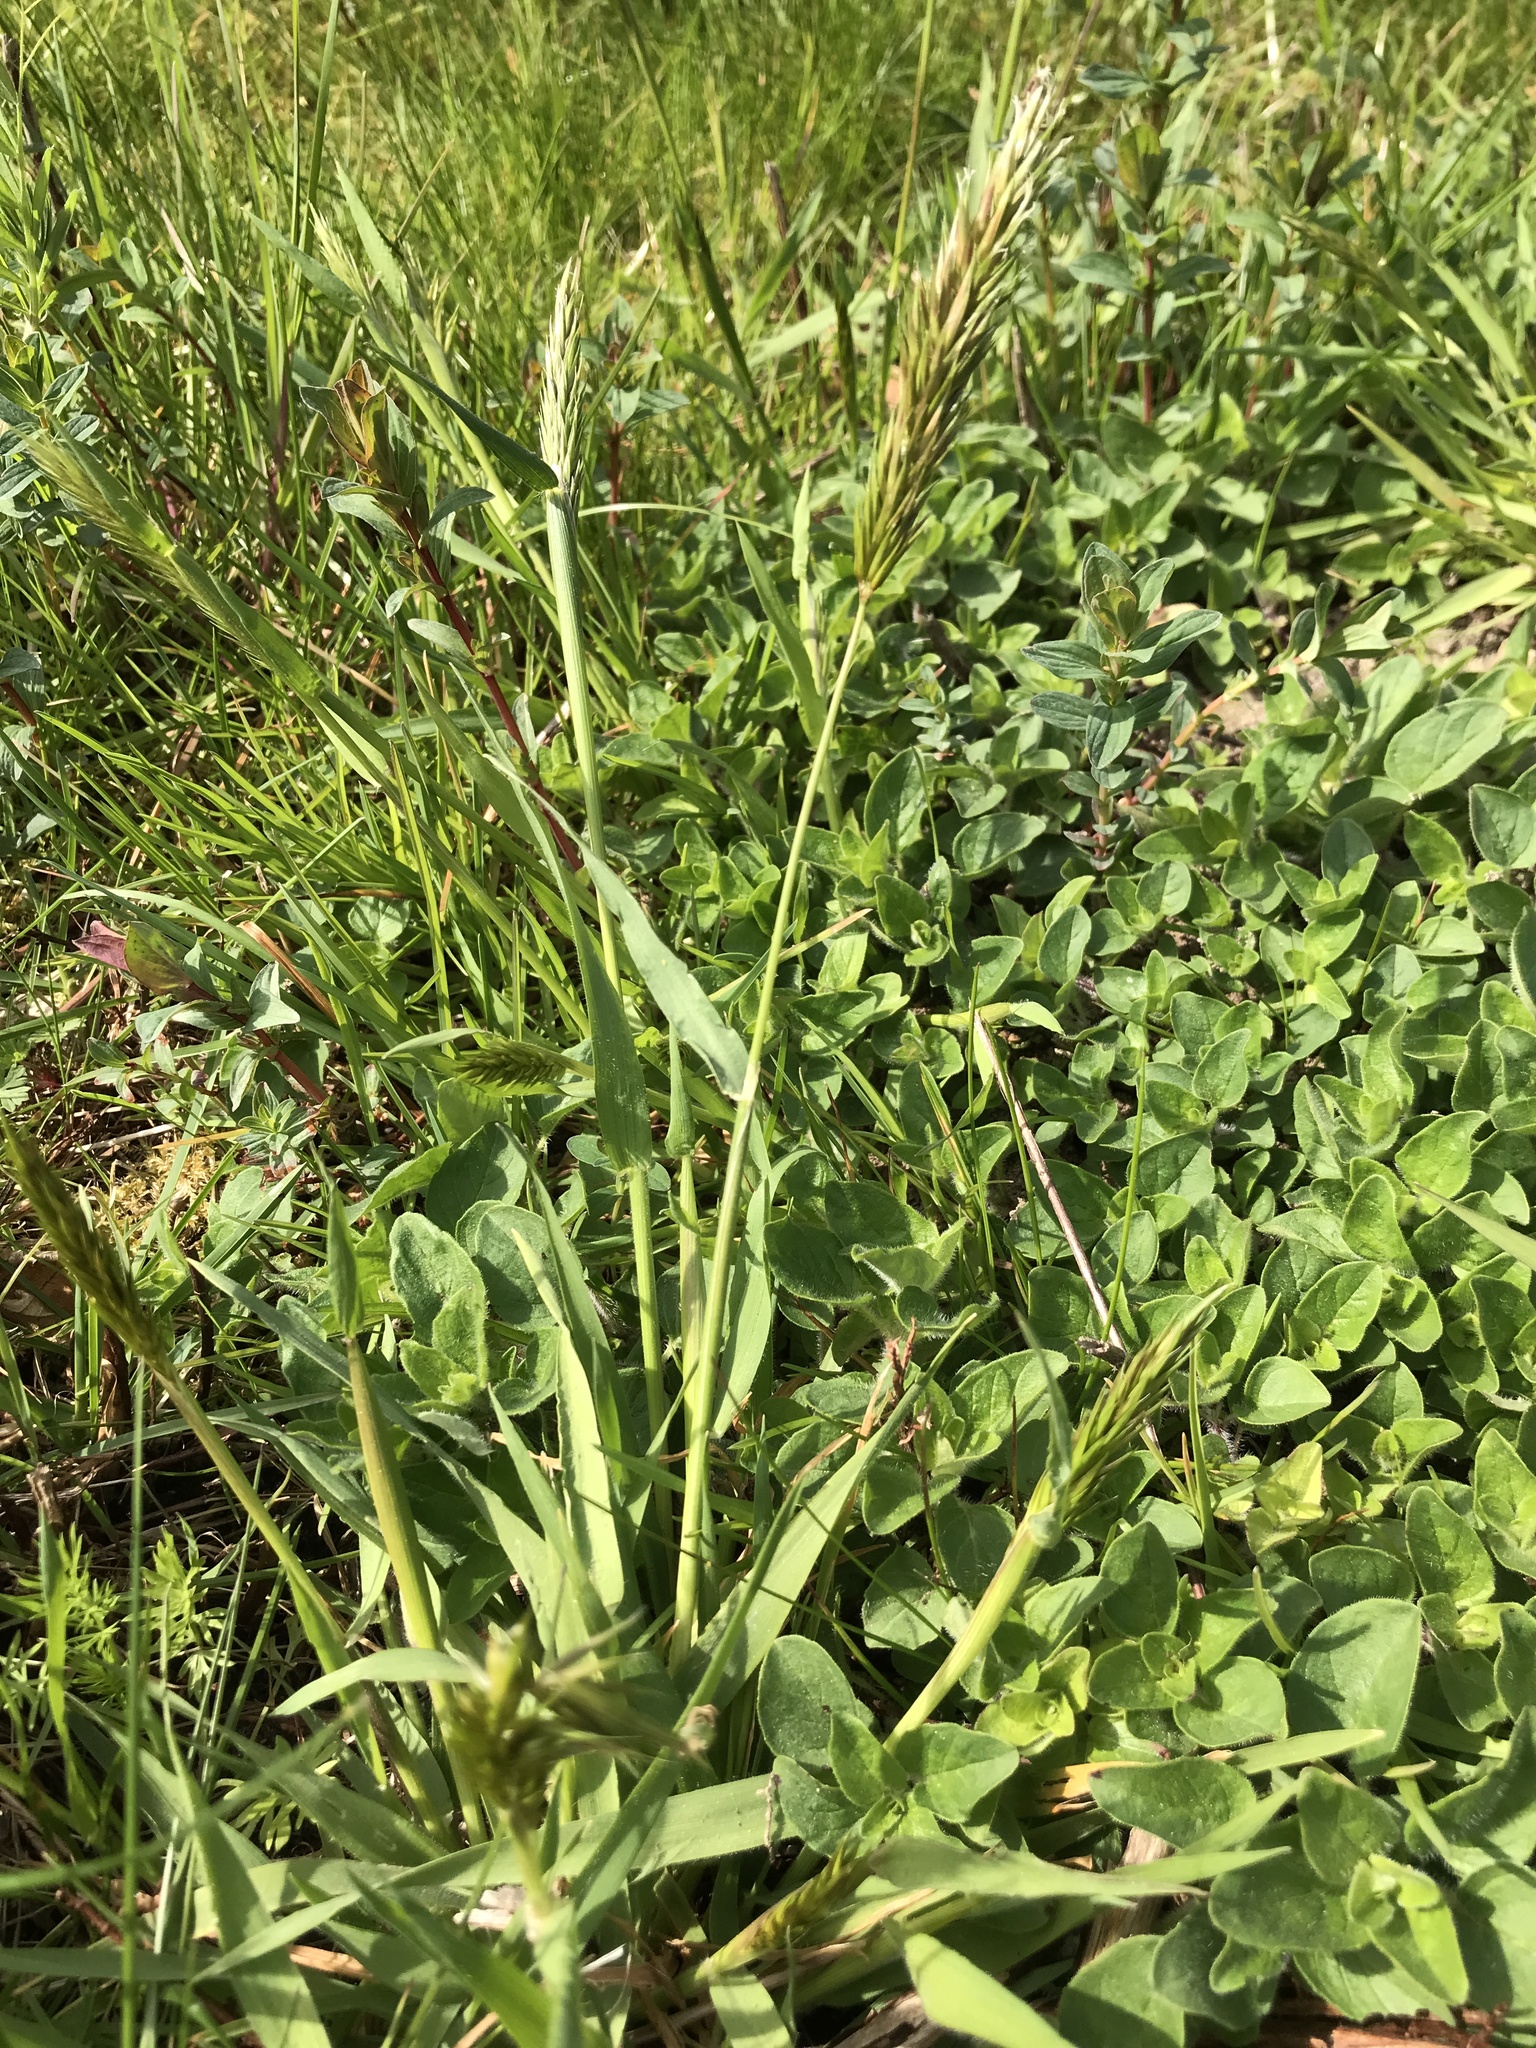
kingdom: Plantae
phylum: Tracheophyta
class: Liliopsida
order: Poales
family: Poaceae
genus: Anthoxanthum
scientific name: Anthoxanthum odoratum
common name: Sweet vernalgrass
